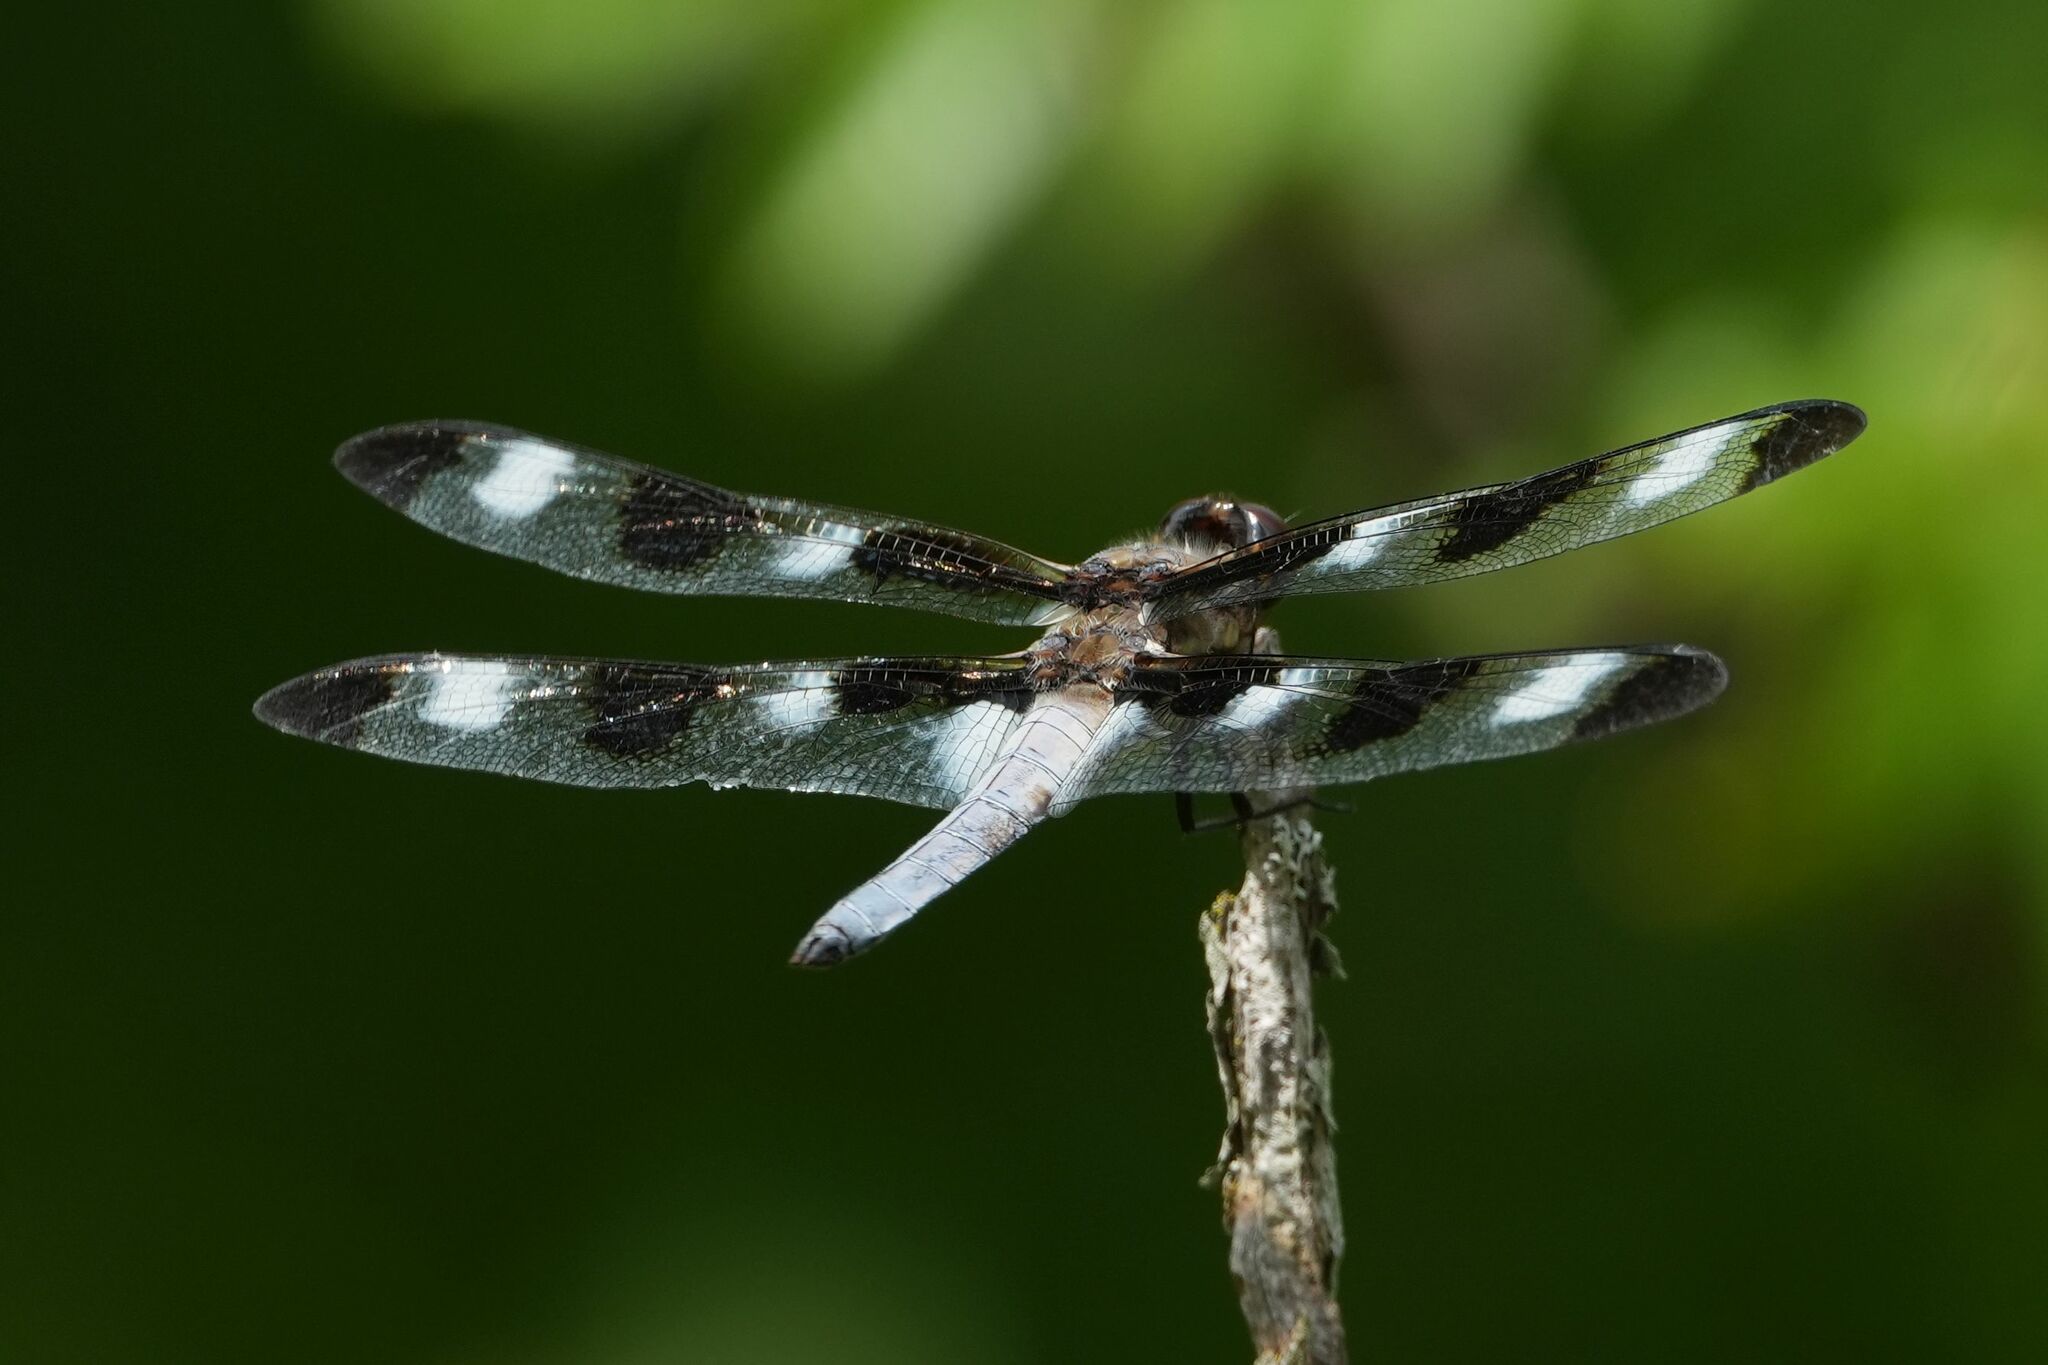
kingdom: Animalia
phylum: Arthropoda
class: Insecta
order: Odonata
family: Libellulidae
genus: Libellula
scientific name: Libellula pulchella
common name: Twelve-spotted skimmer
